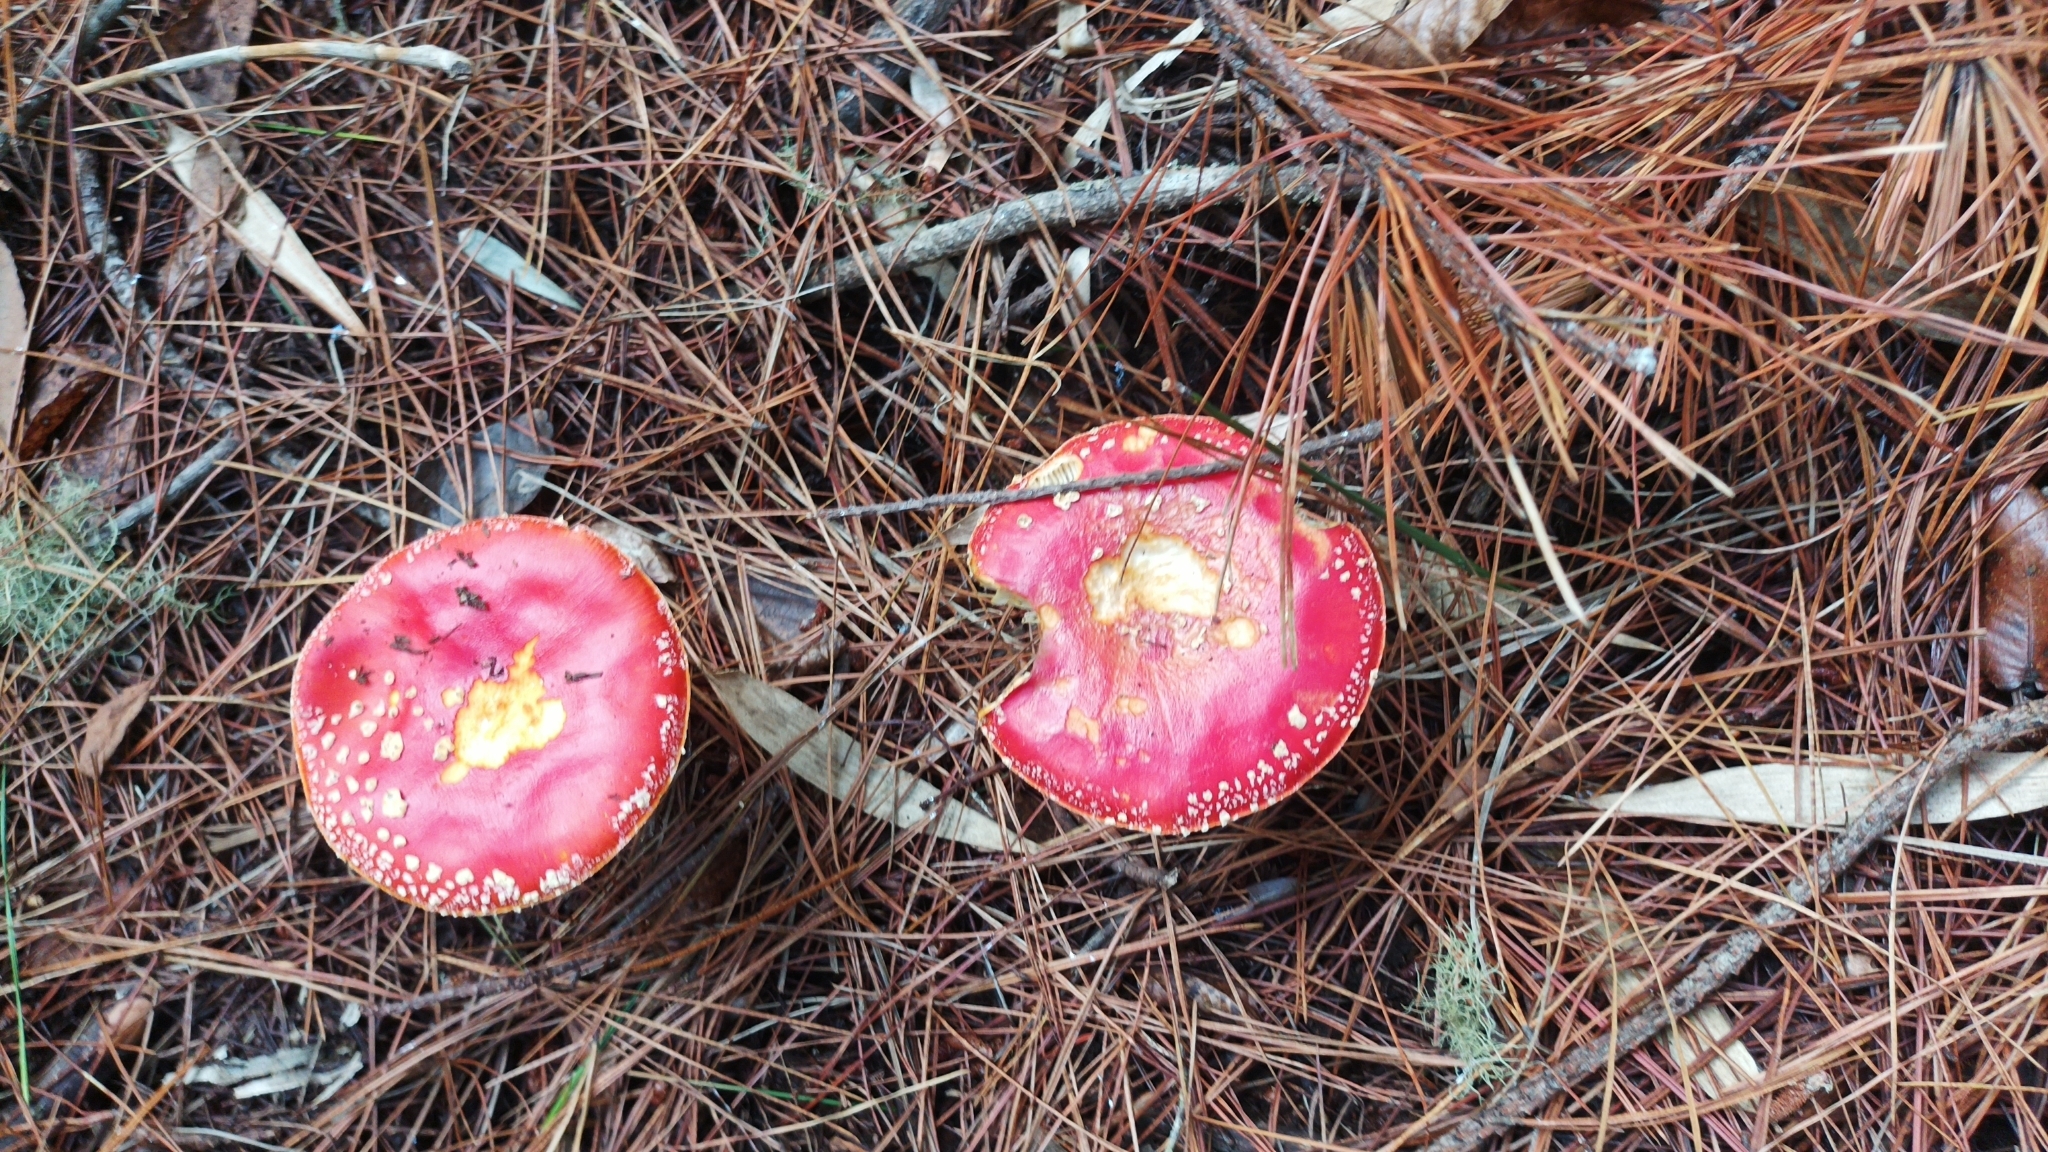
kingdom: Fungi
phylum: Basidiomycota
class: Agaricomycetes
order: Agaricales
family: Amanitaceae
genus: Amanita
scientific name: Amanita muscaria
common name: Fly agaric
